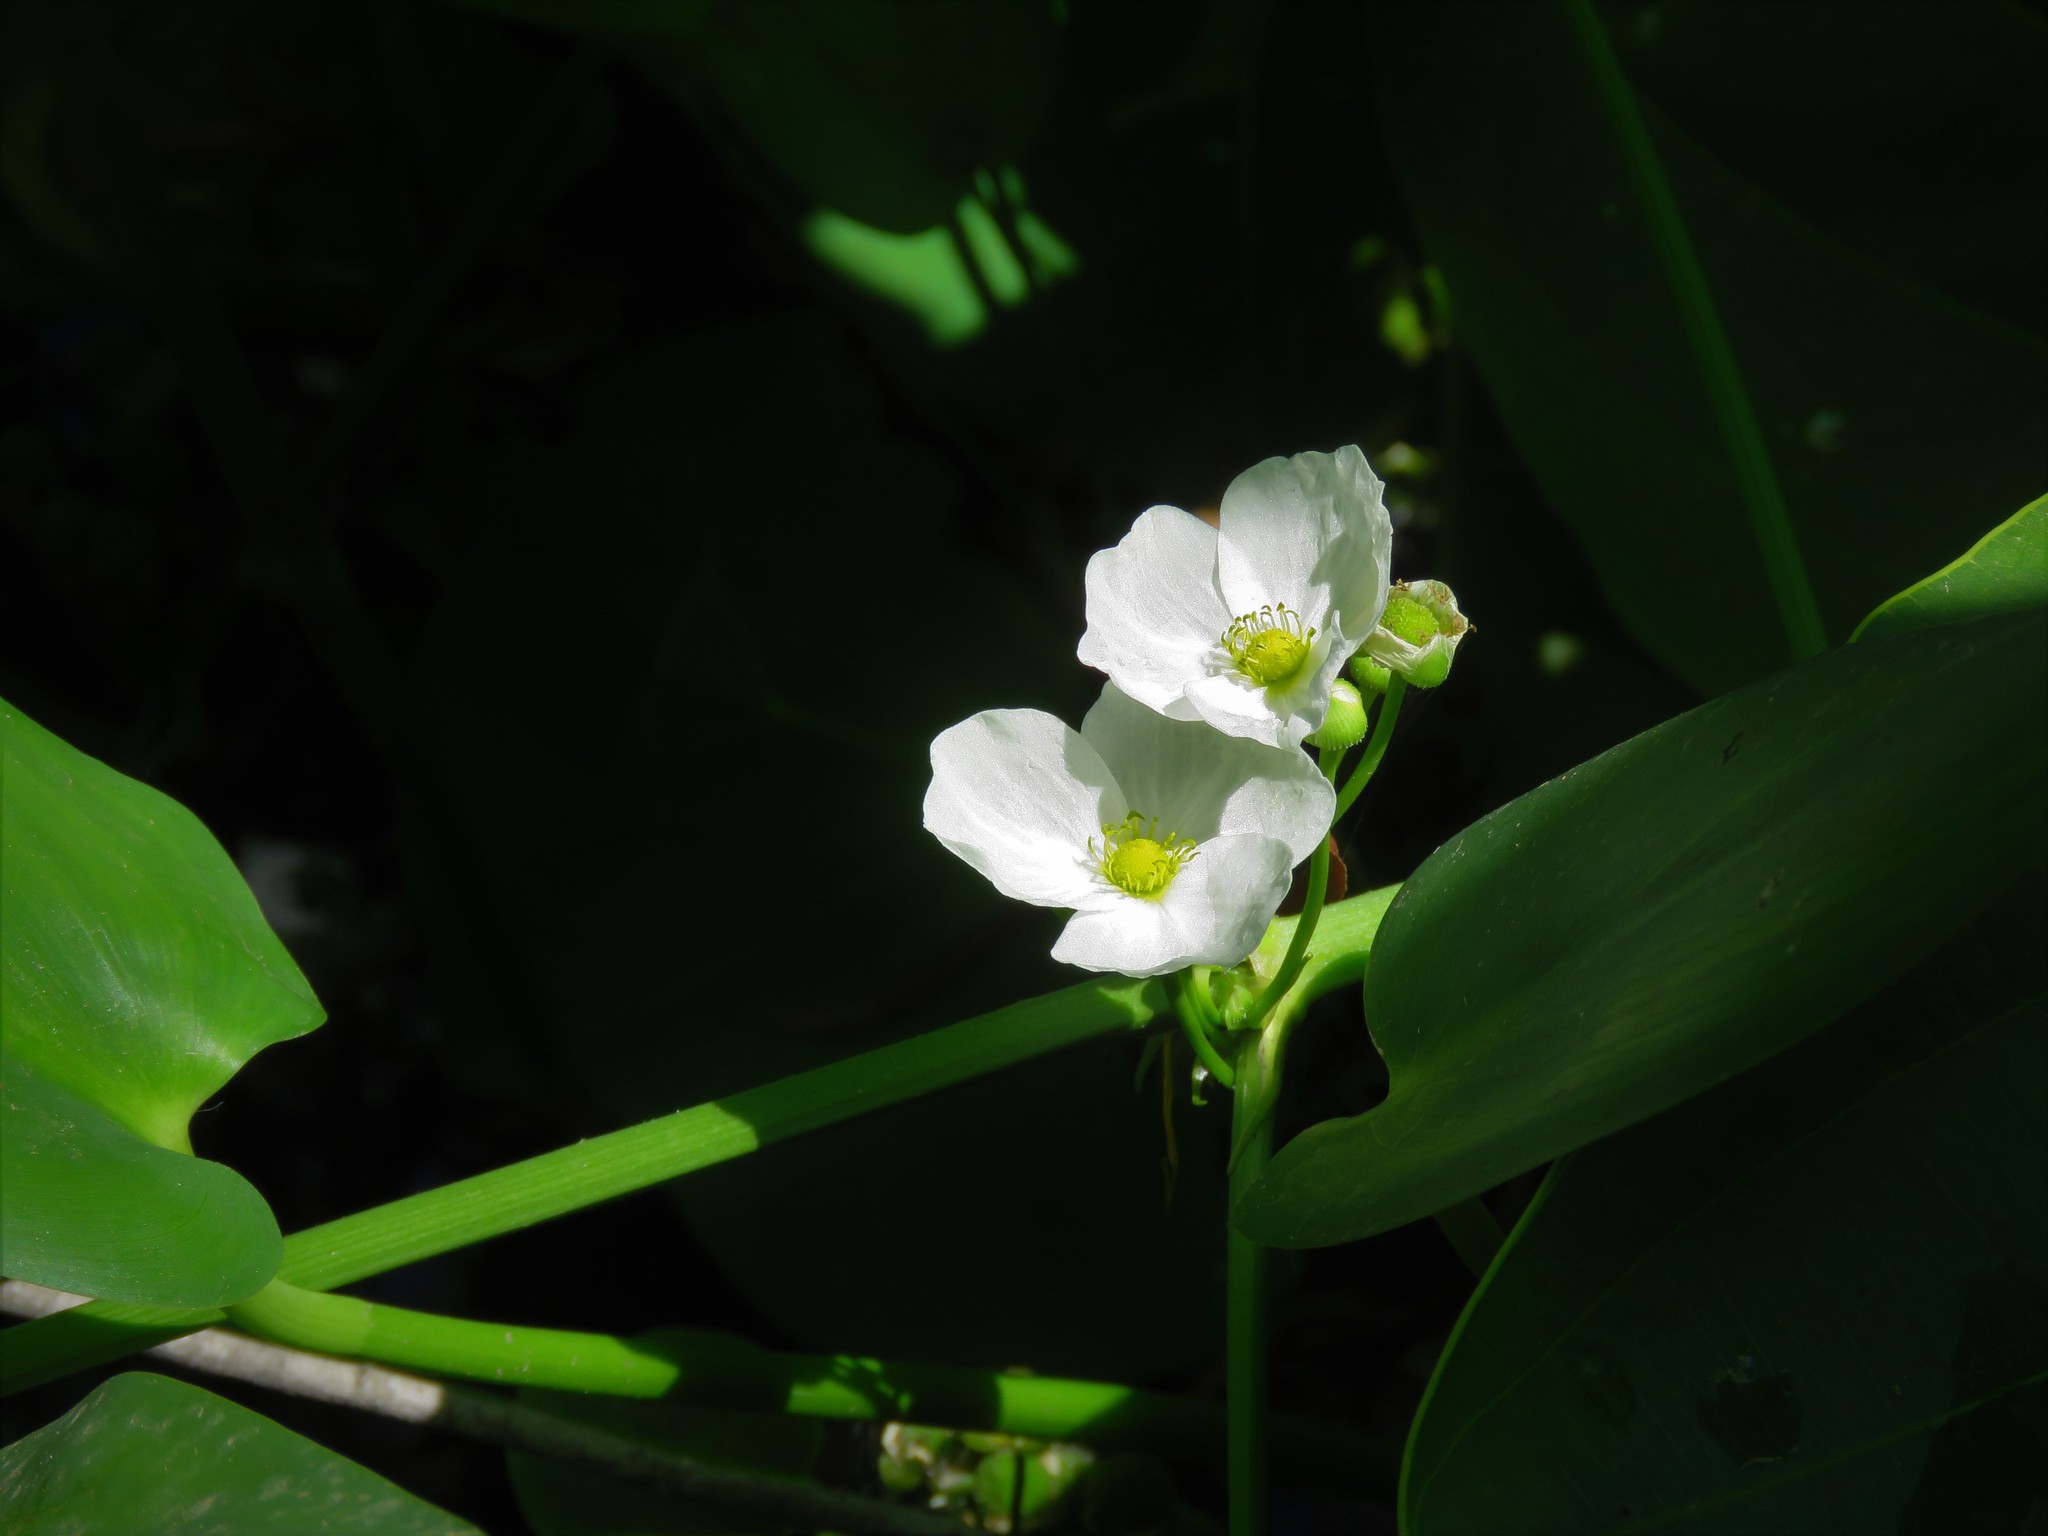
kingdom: Plantae
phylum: Tracheophyta
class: Liliopsida
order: Alismatales
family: Alismataceae
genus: Aquarius
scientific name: Aquarius cordifolius
